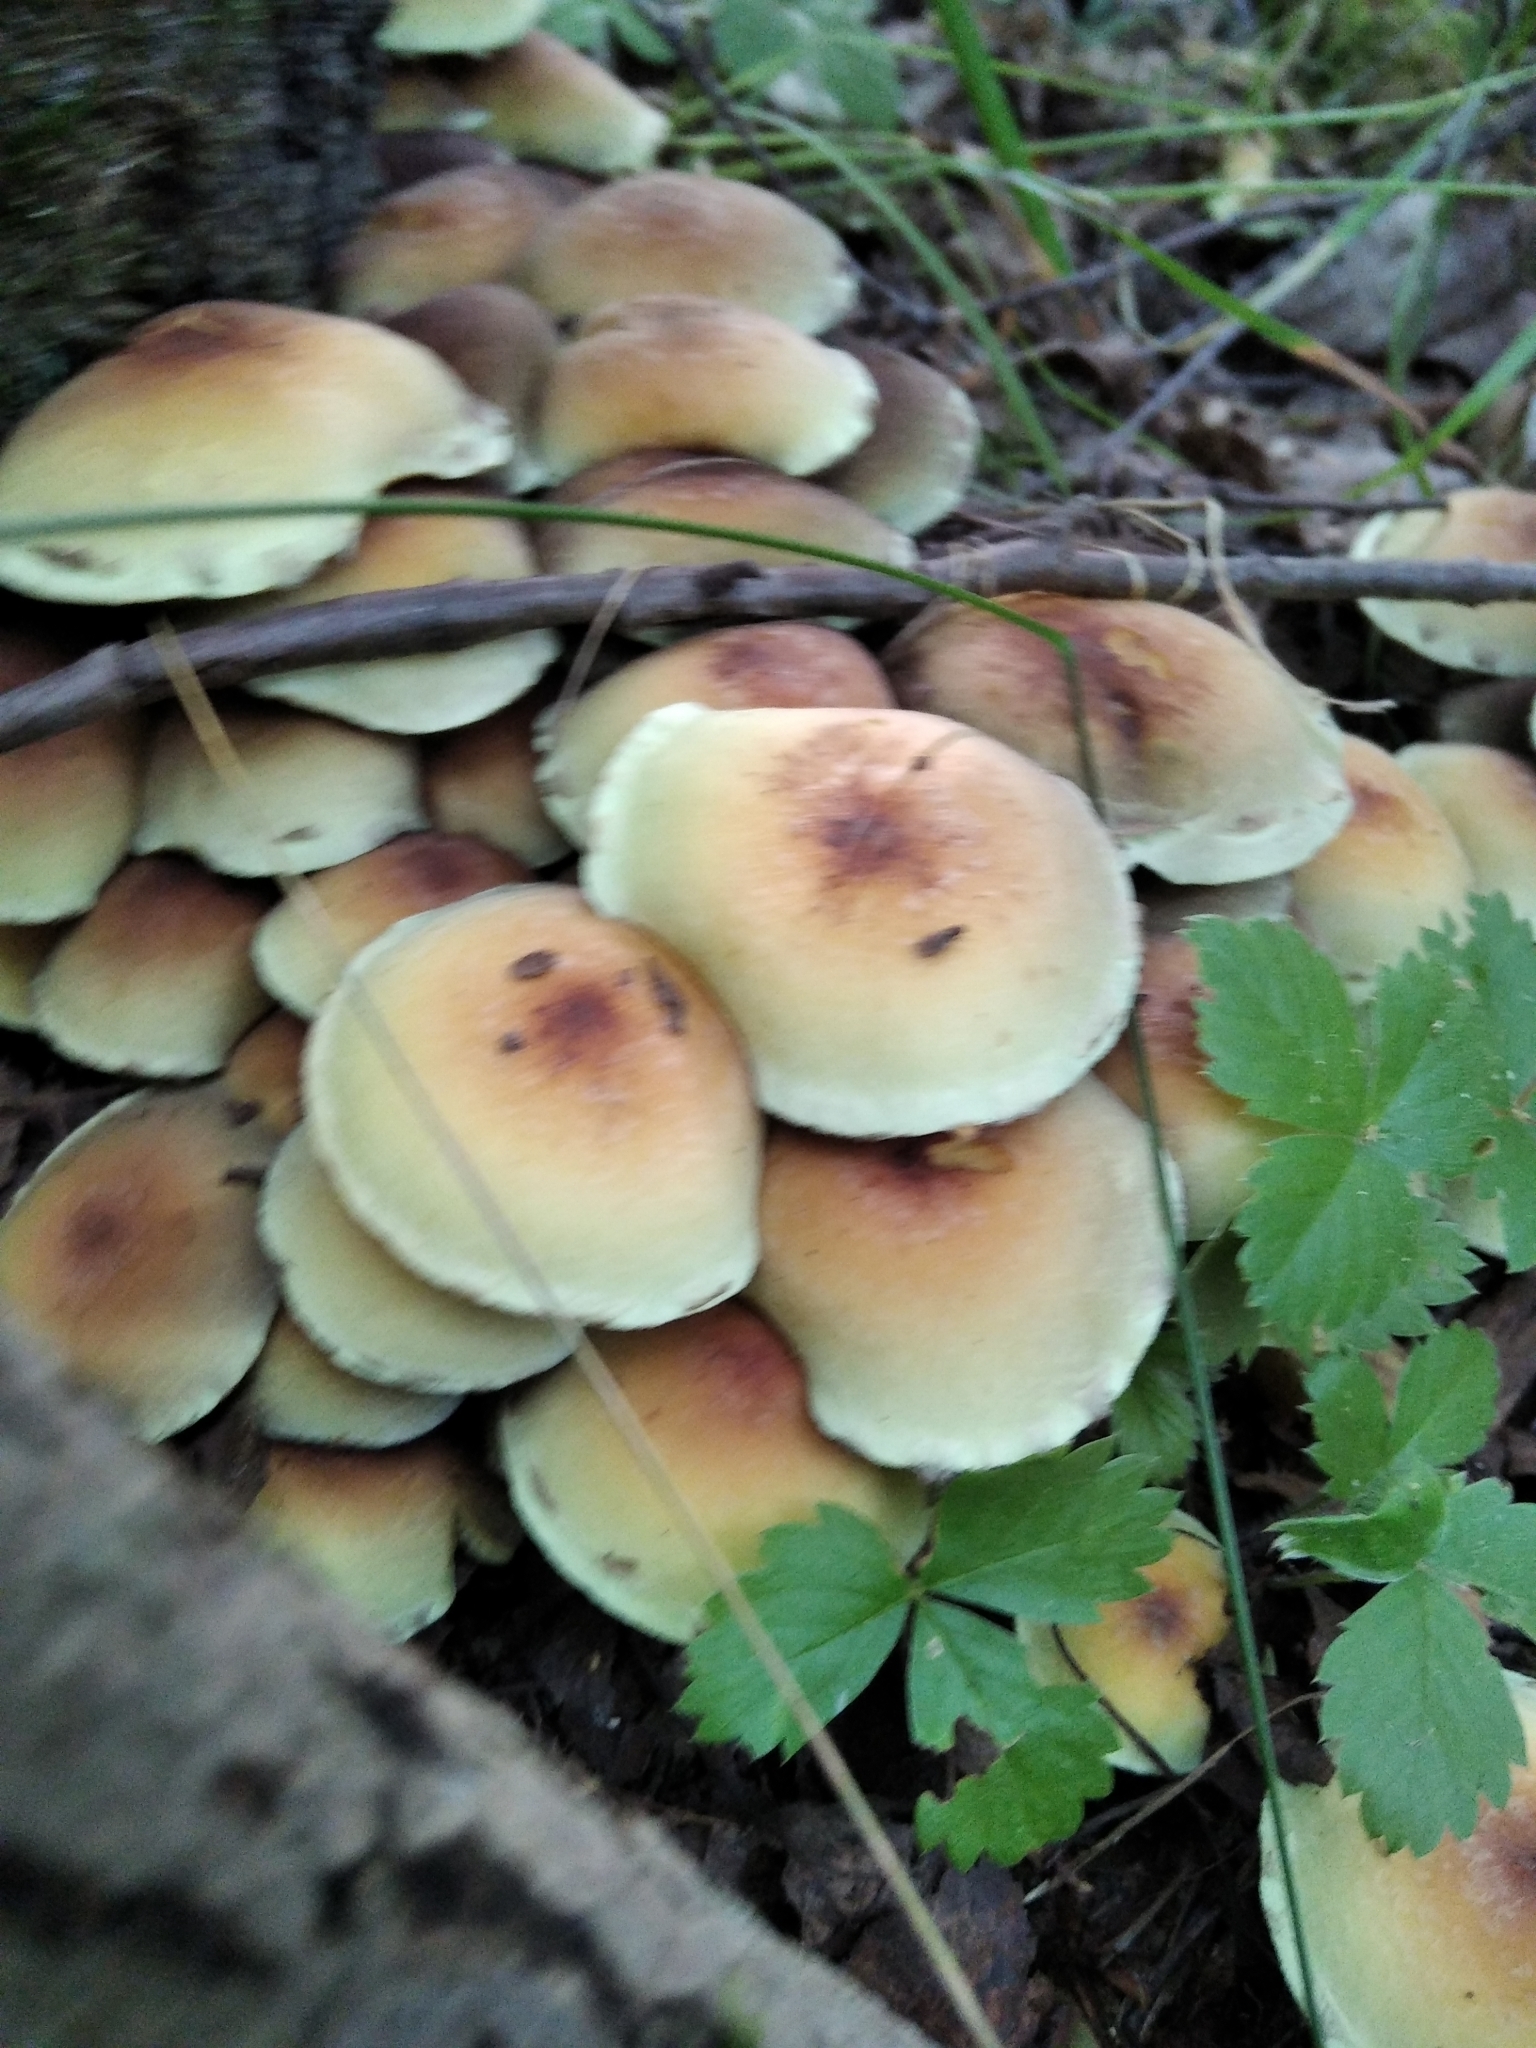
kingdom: Fungi
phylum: Basidiomycota
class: Agaricomycetes
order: Agaricales
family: Strophariaceae
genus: Hypholoma
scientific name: Hypholoma fasciculare
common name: Sulphur tuft
